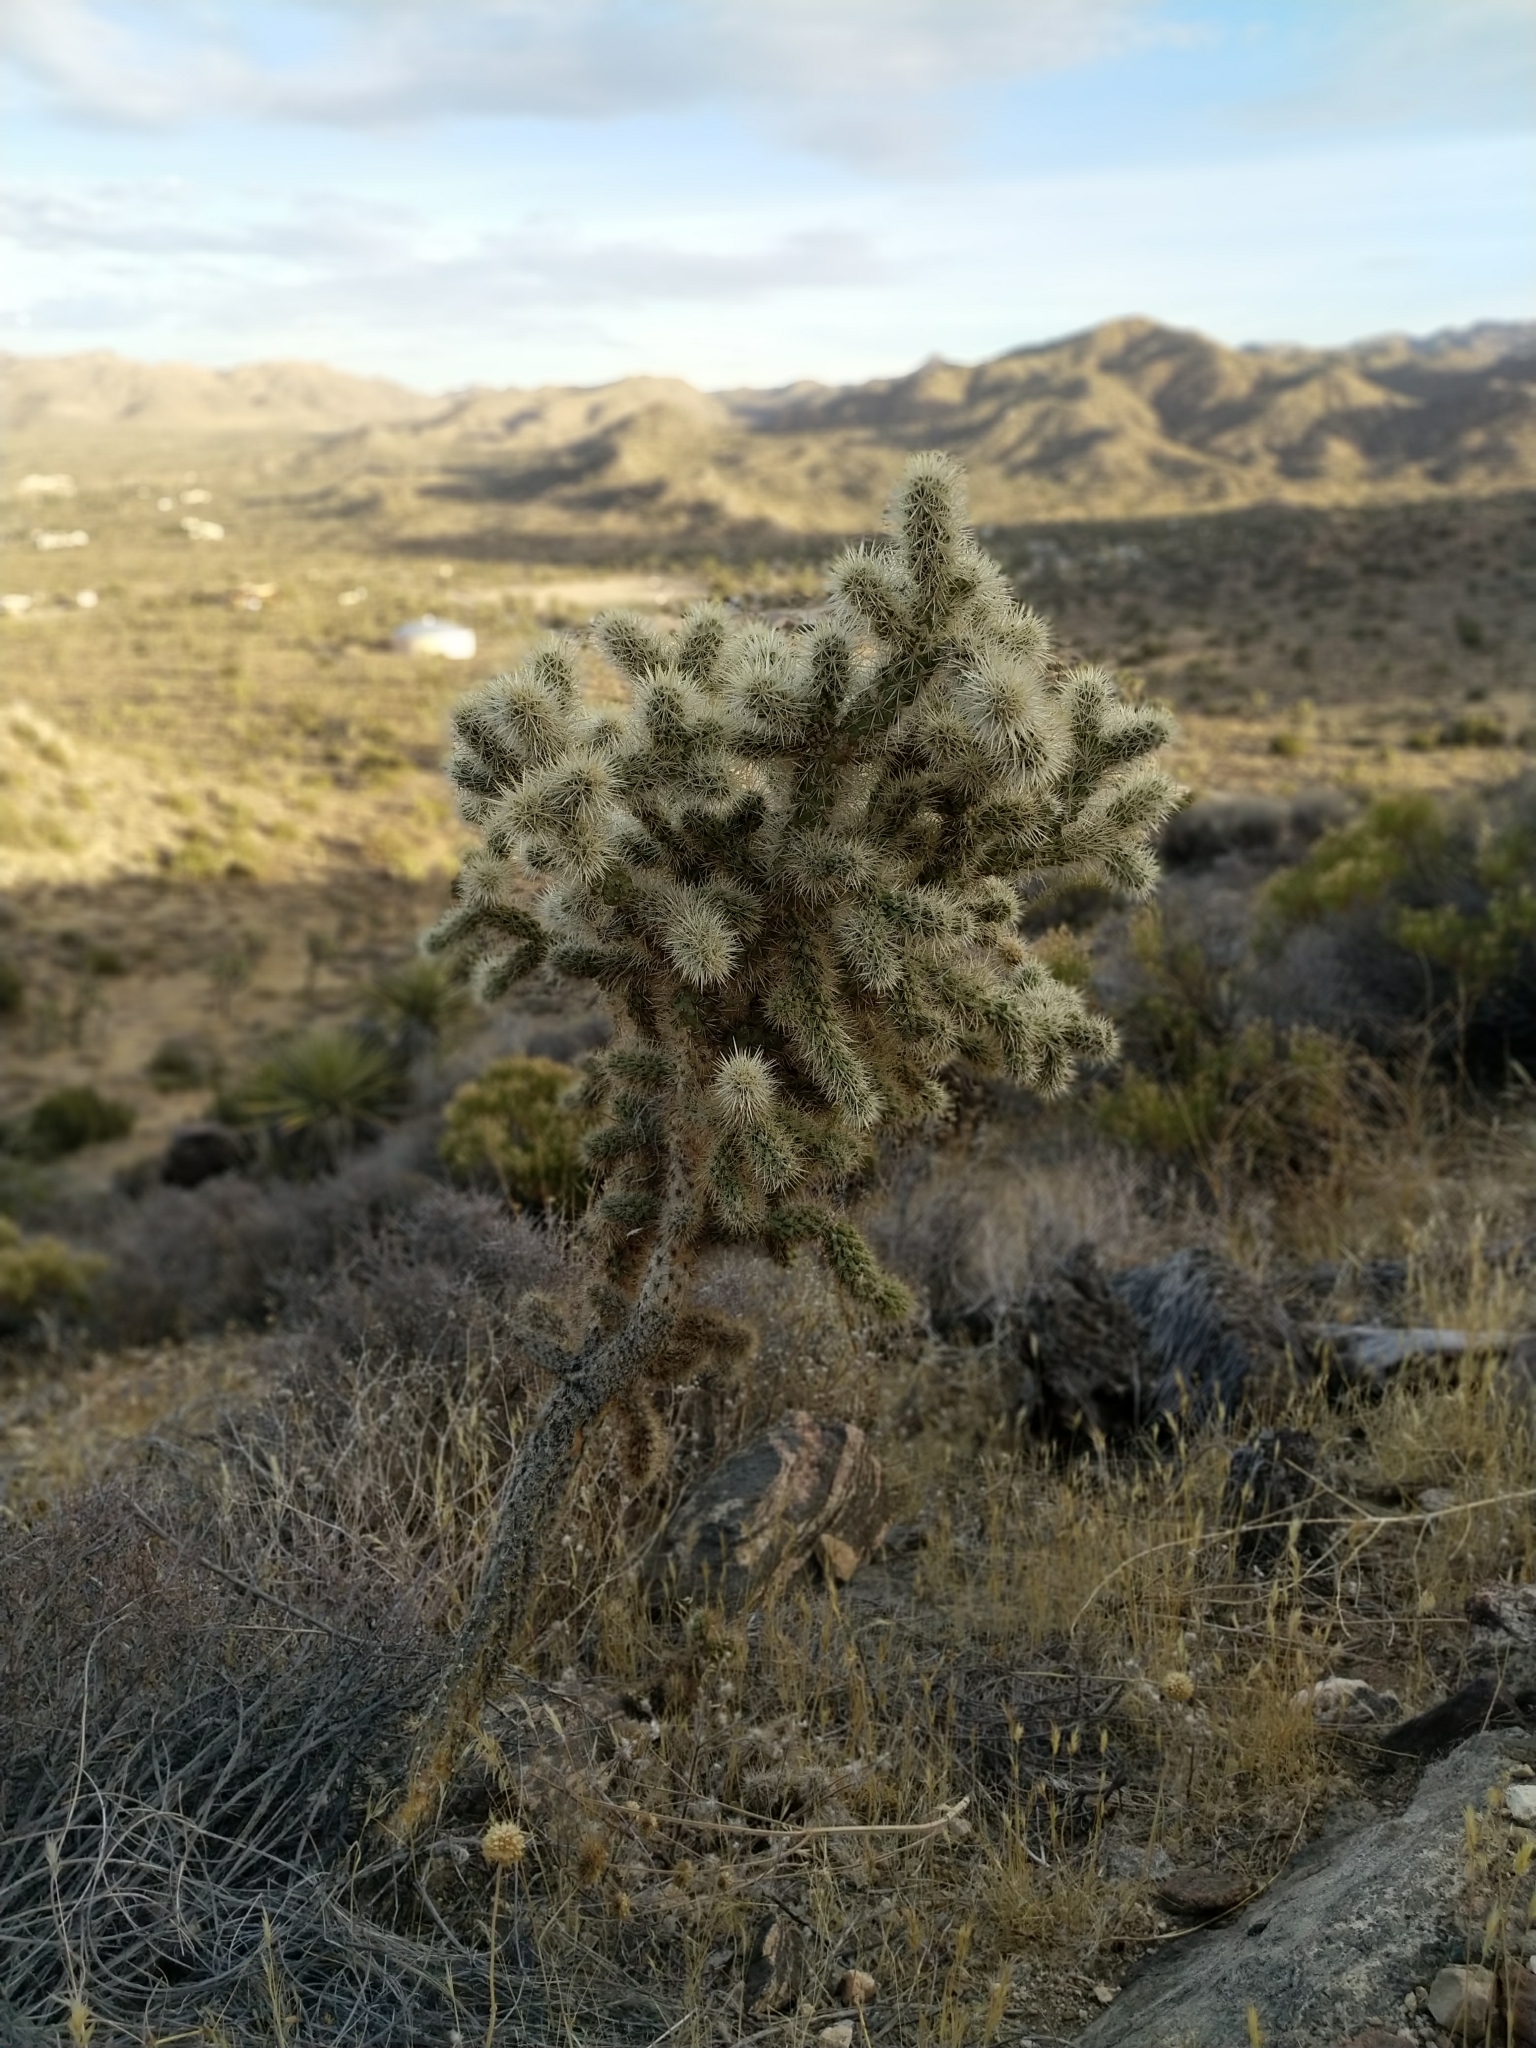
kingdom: Plantae
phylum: Tracheophyta
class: Magnoliopsida
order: Caryophyllales
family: Cactaceae
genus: Cylindropuntia
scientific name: Cylindropuntia echinocarpa
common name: Ground cholla
